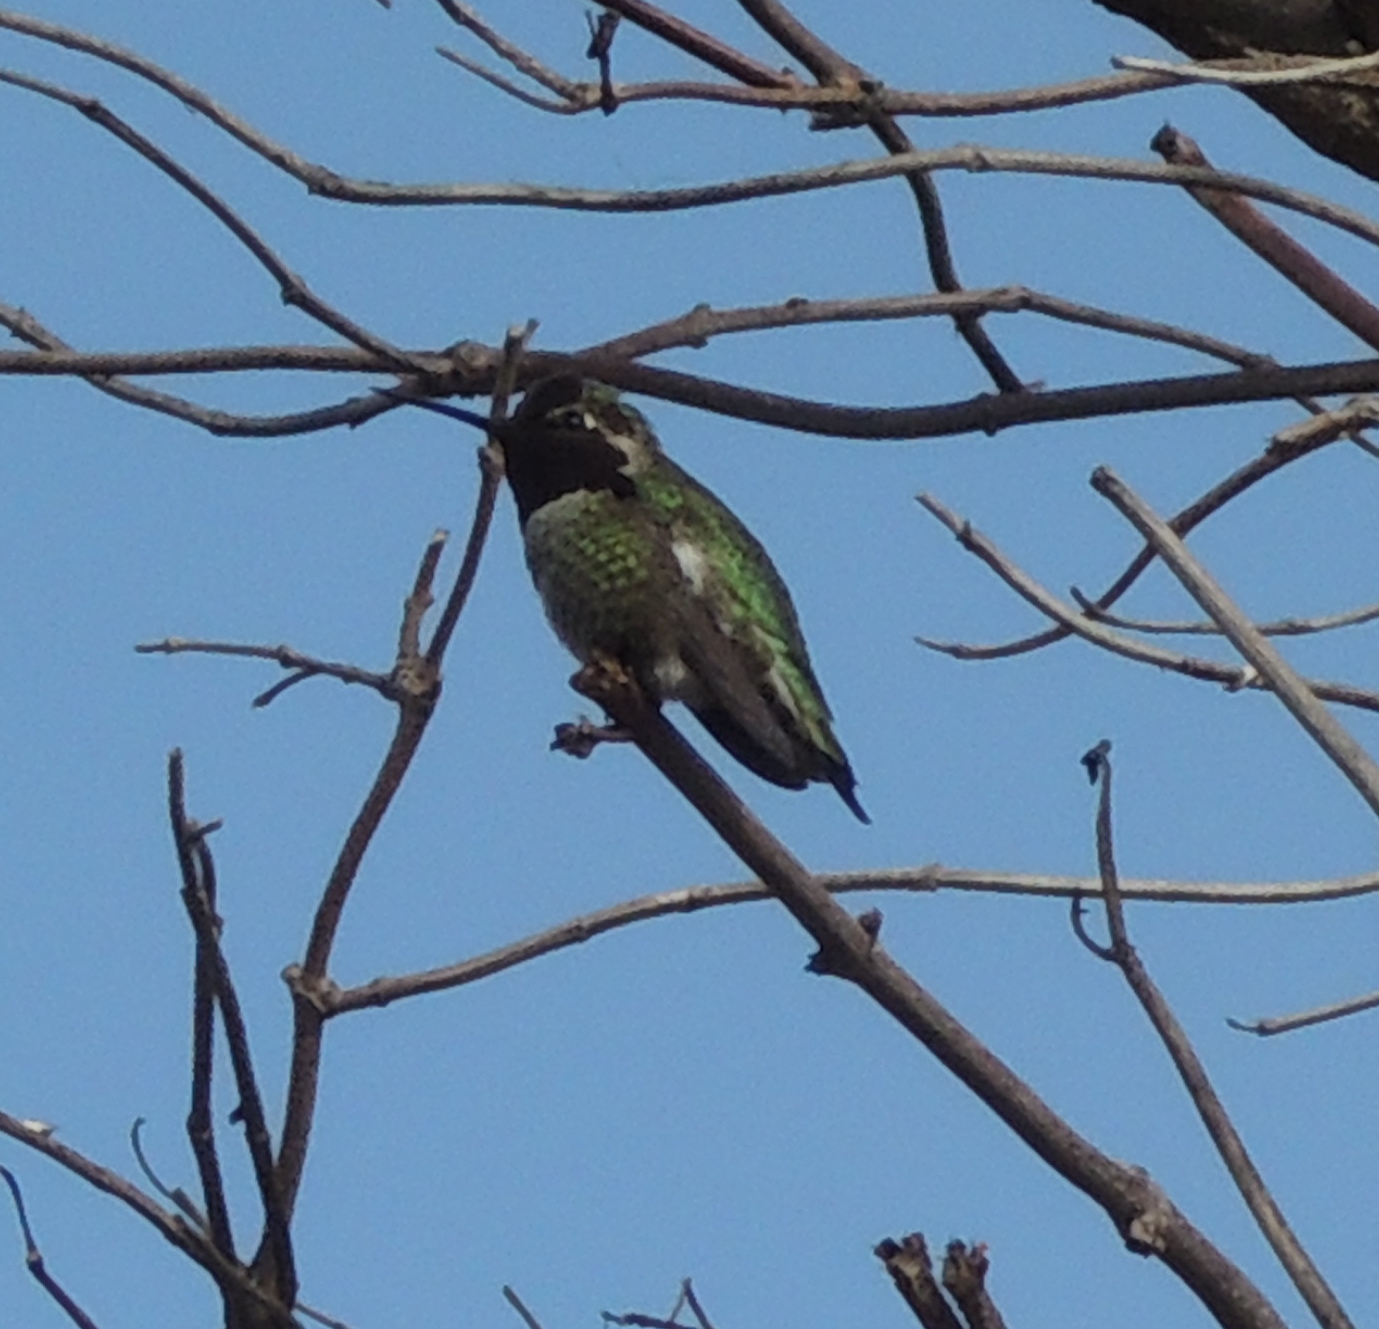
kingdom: Animalia
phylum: Chordata
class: Aves
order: Apodiformes
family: Trochilidae
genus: Calypte
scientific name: Calypte anna
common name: Anna's hummingbird
